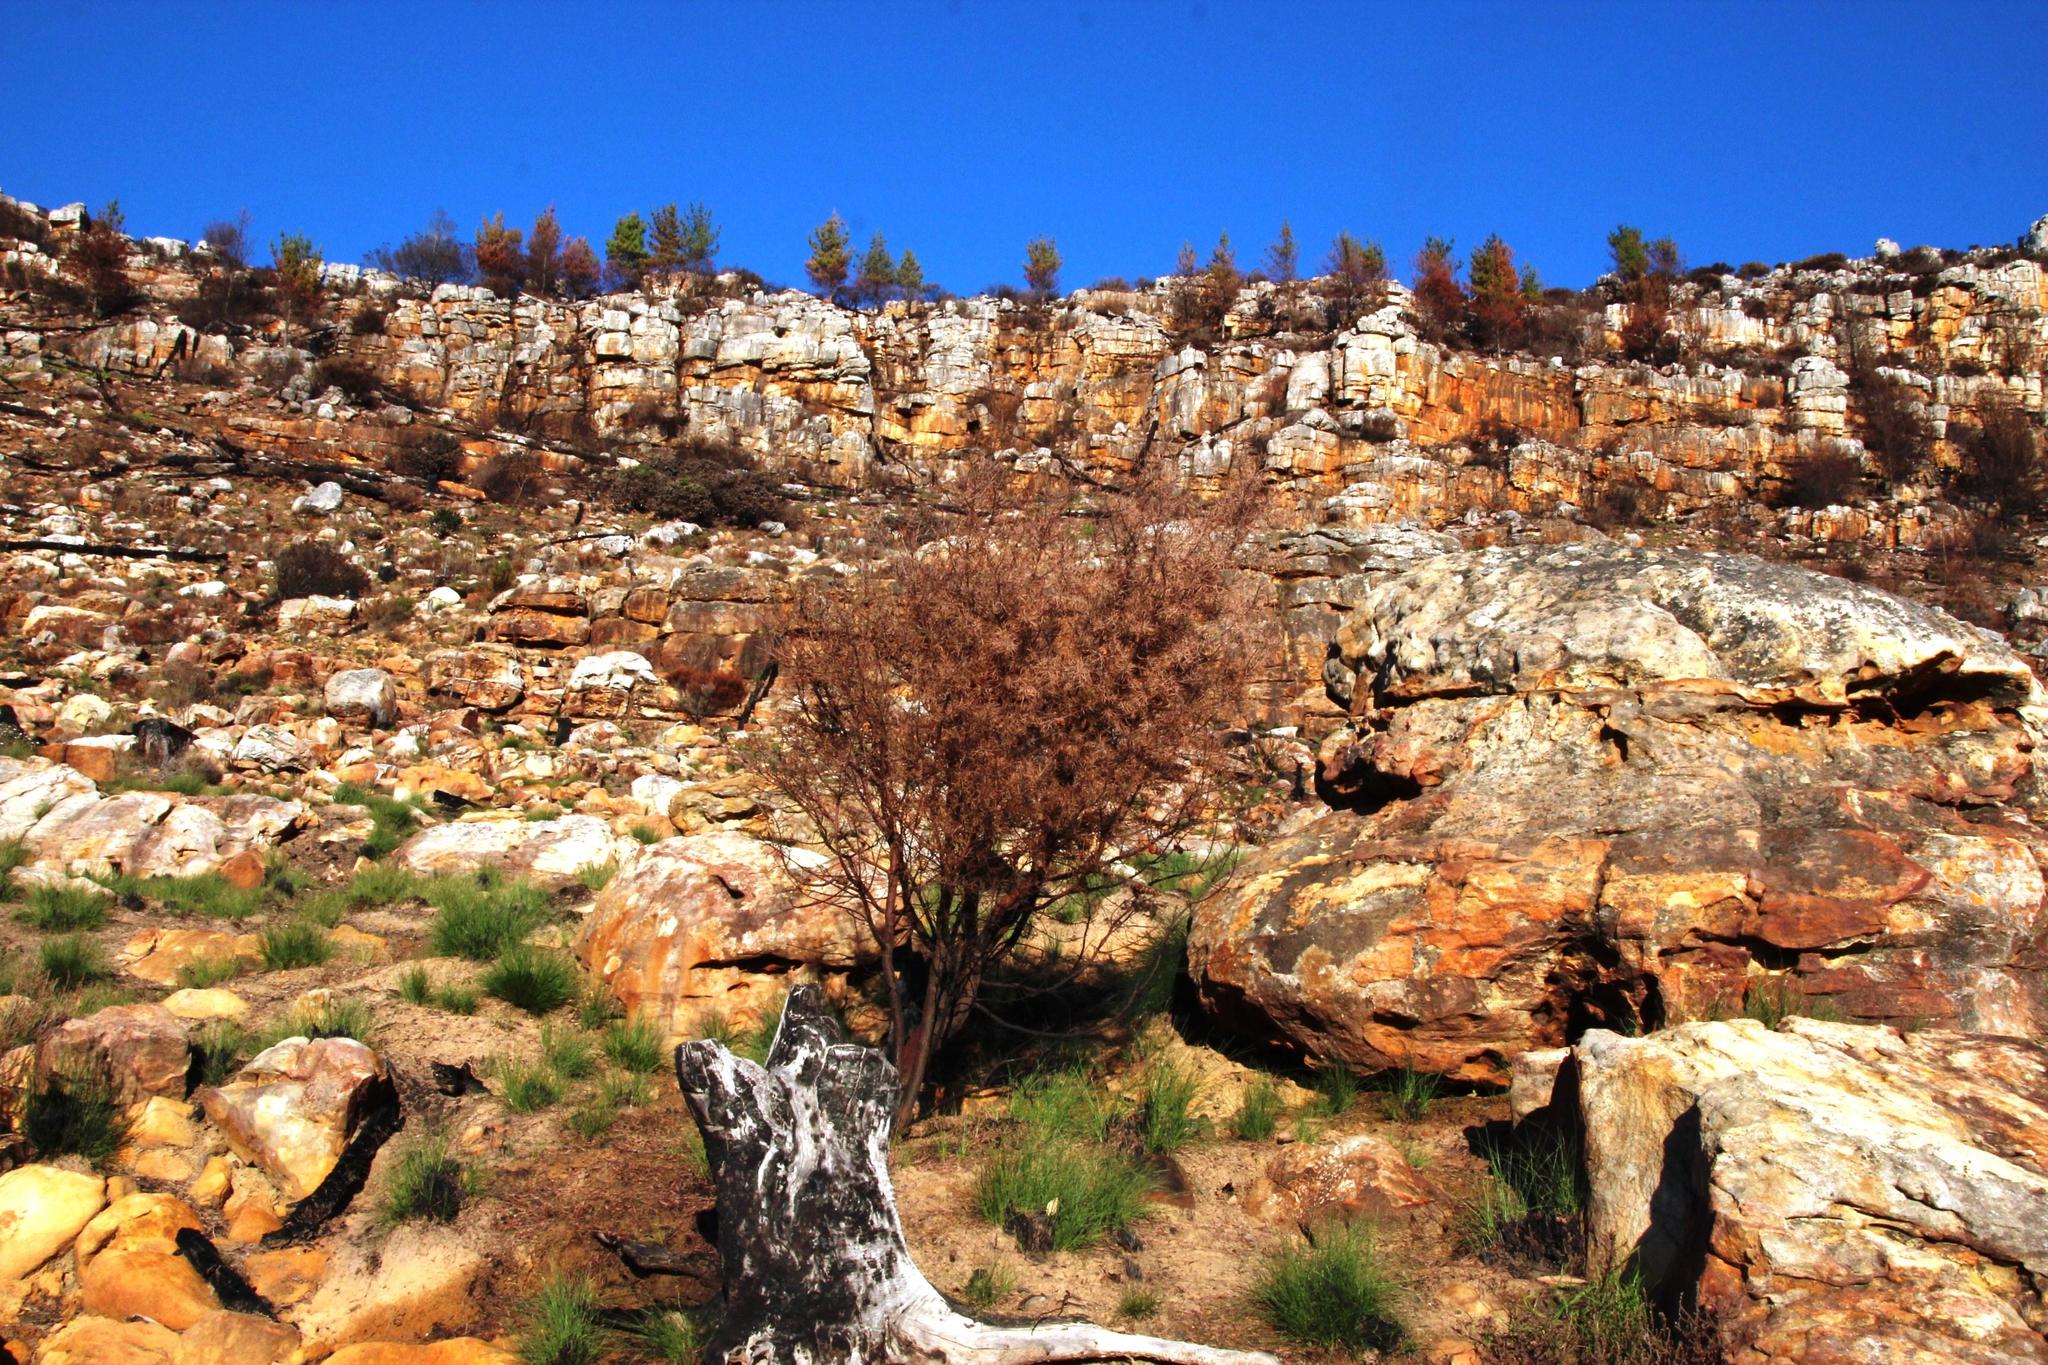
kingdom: Plantae
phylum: Tracheophyta
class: Magnoliopsida
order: Proteales
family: Proteaceae
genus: Hakea
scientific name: Hakea sericea
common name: Needle bush
